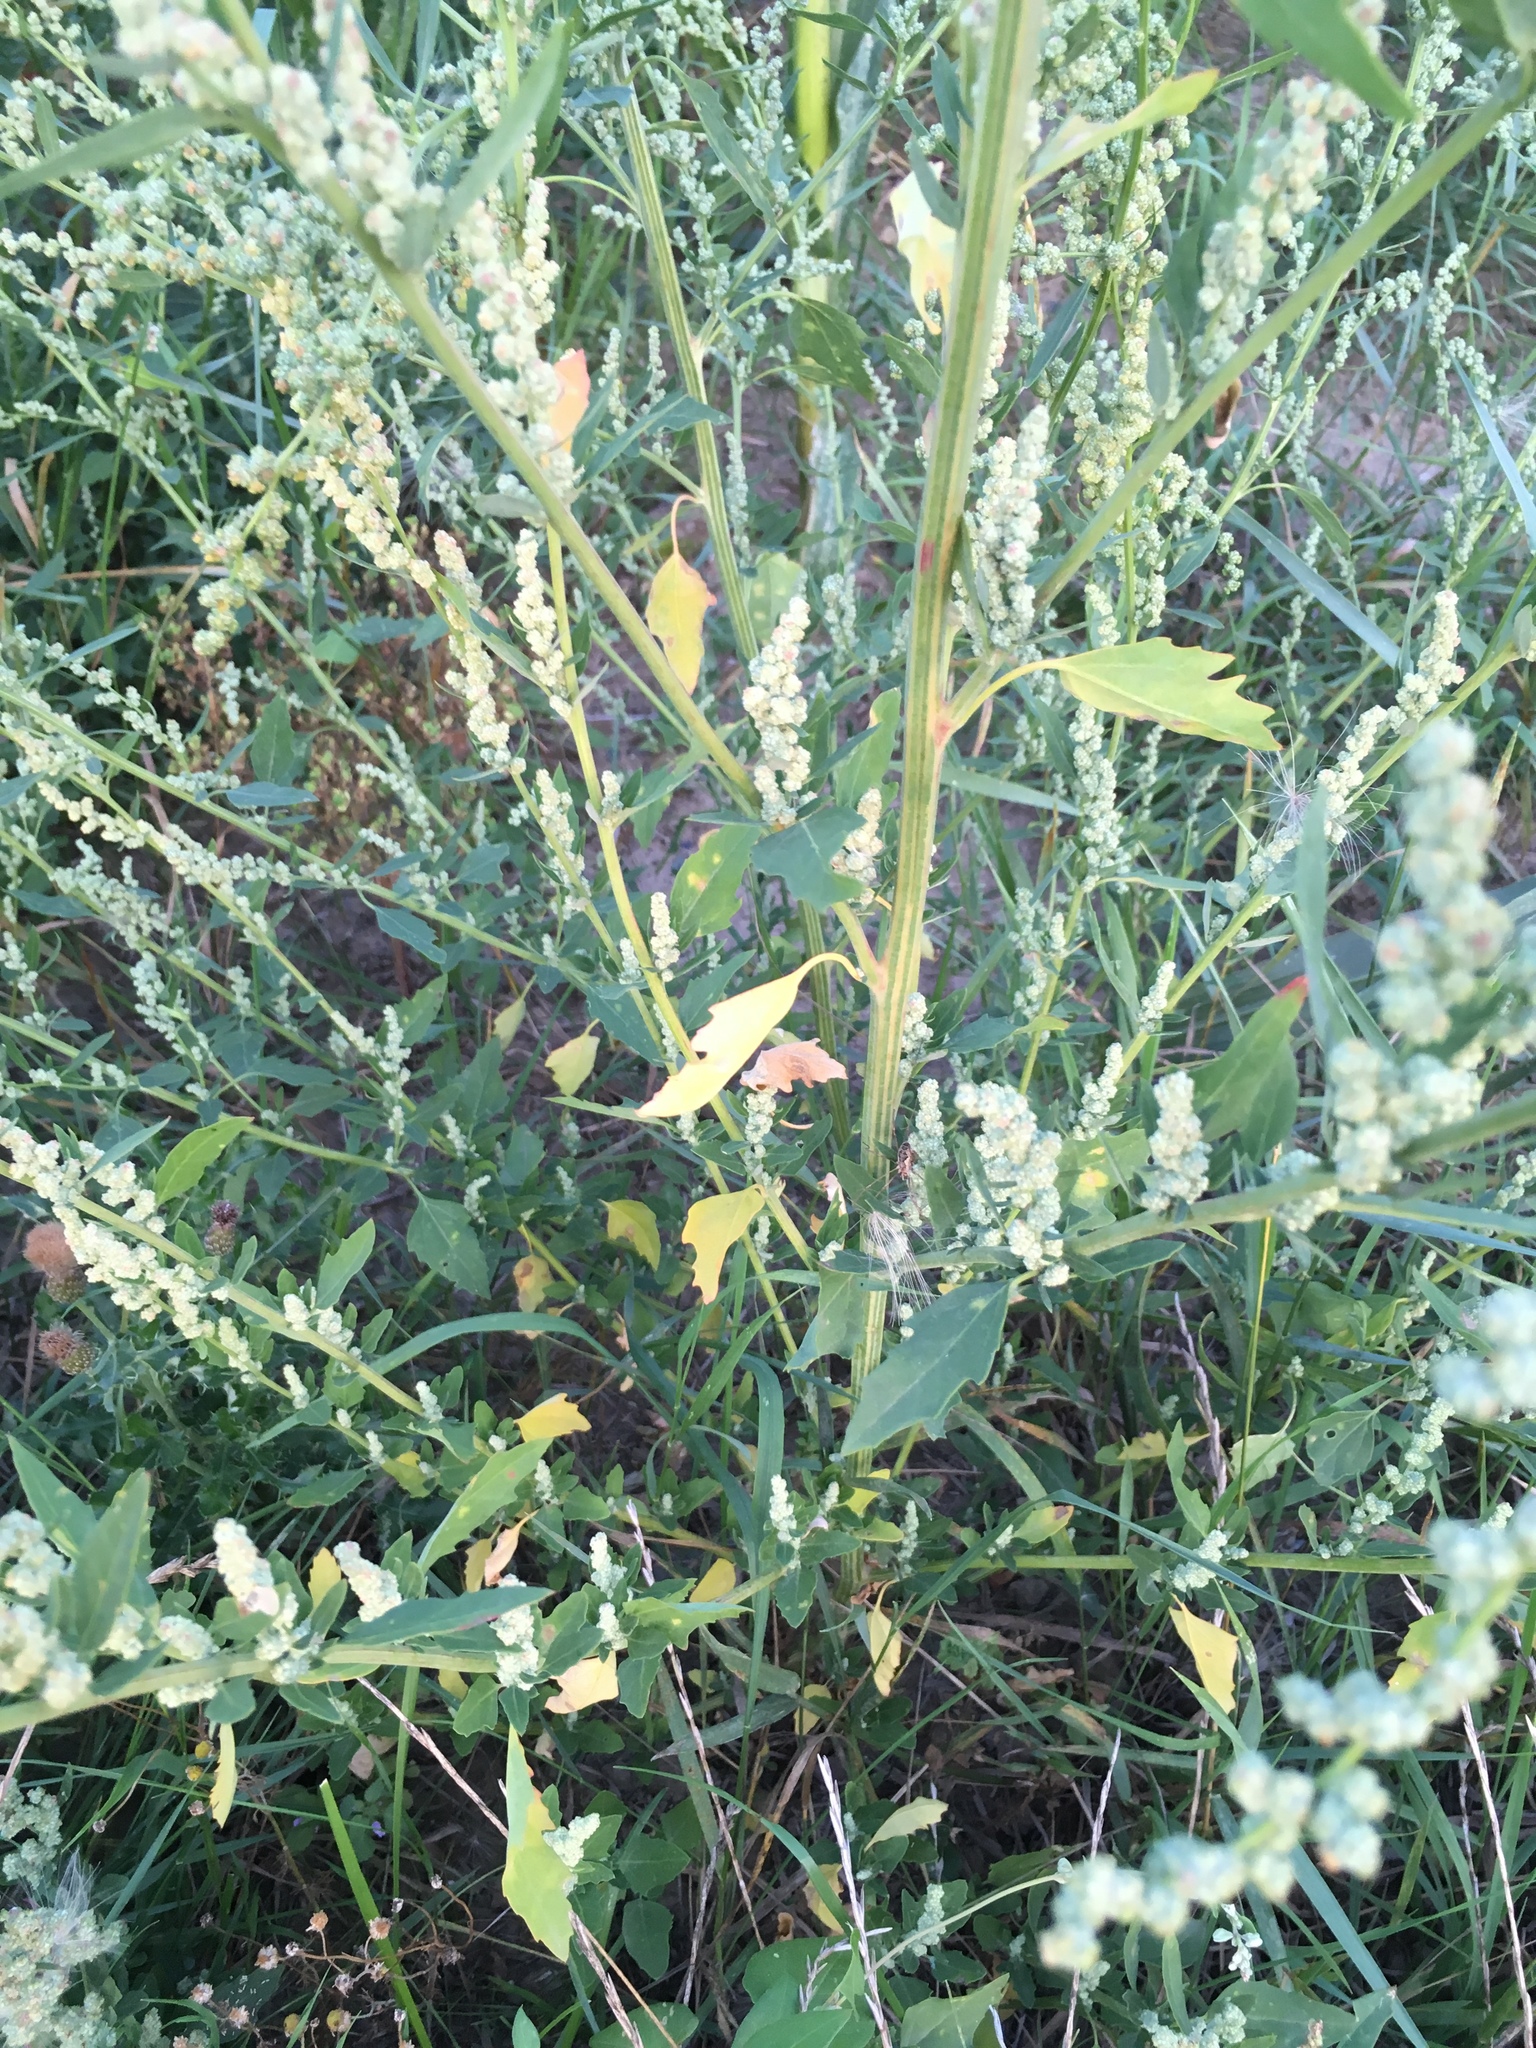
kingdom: Plantae
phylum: Tracheophyta
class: Magnoliopsida
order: Caryophyllales
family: Amaranthaceae
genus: Chenopodium
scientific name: Chenopodium album
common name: Fat-hen
